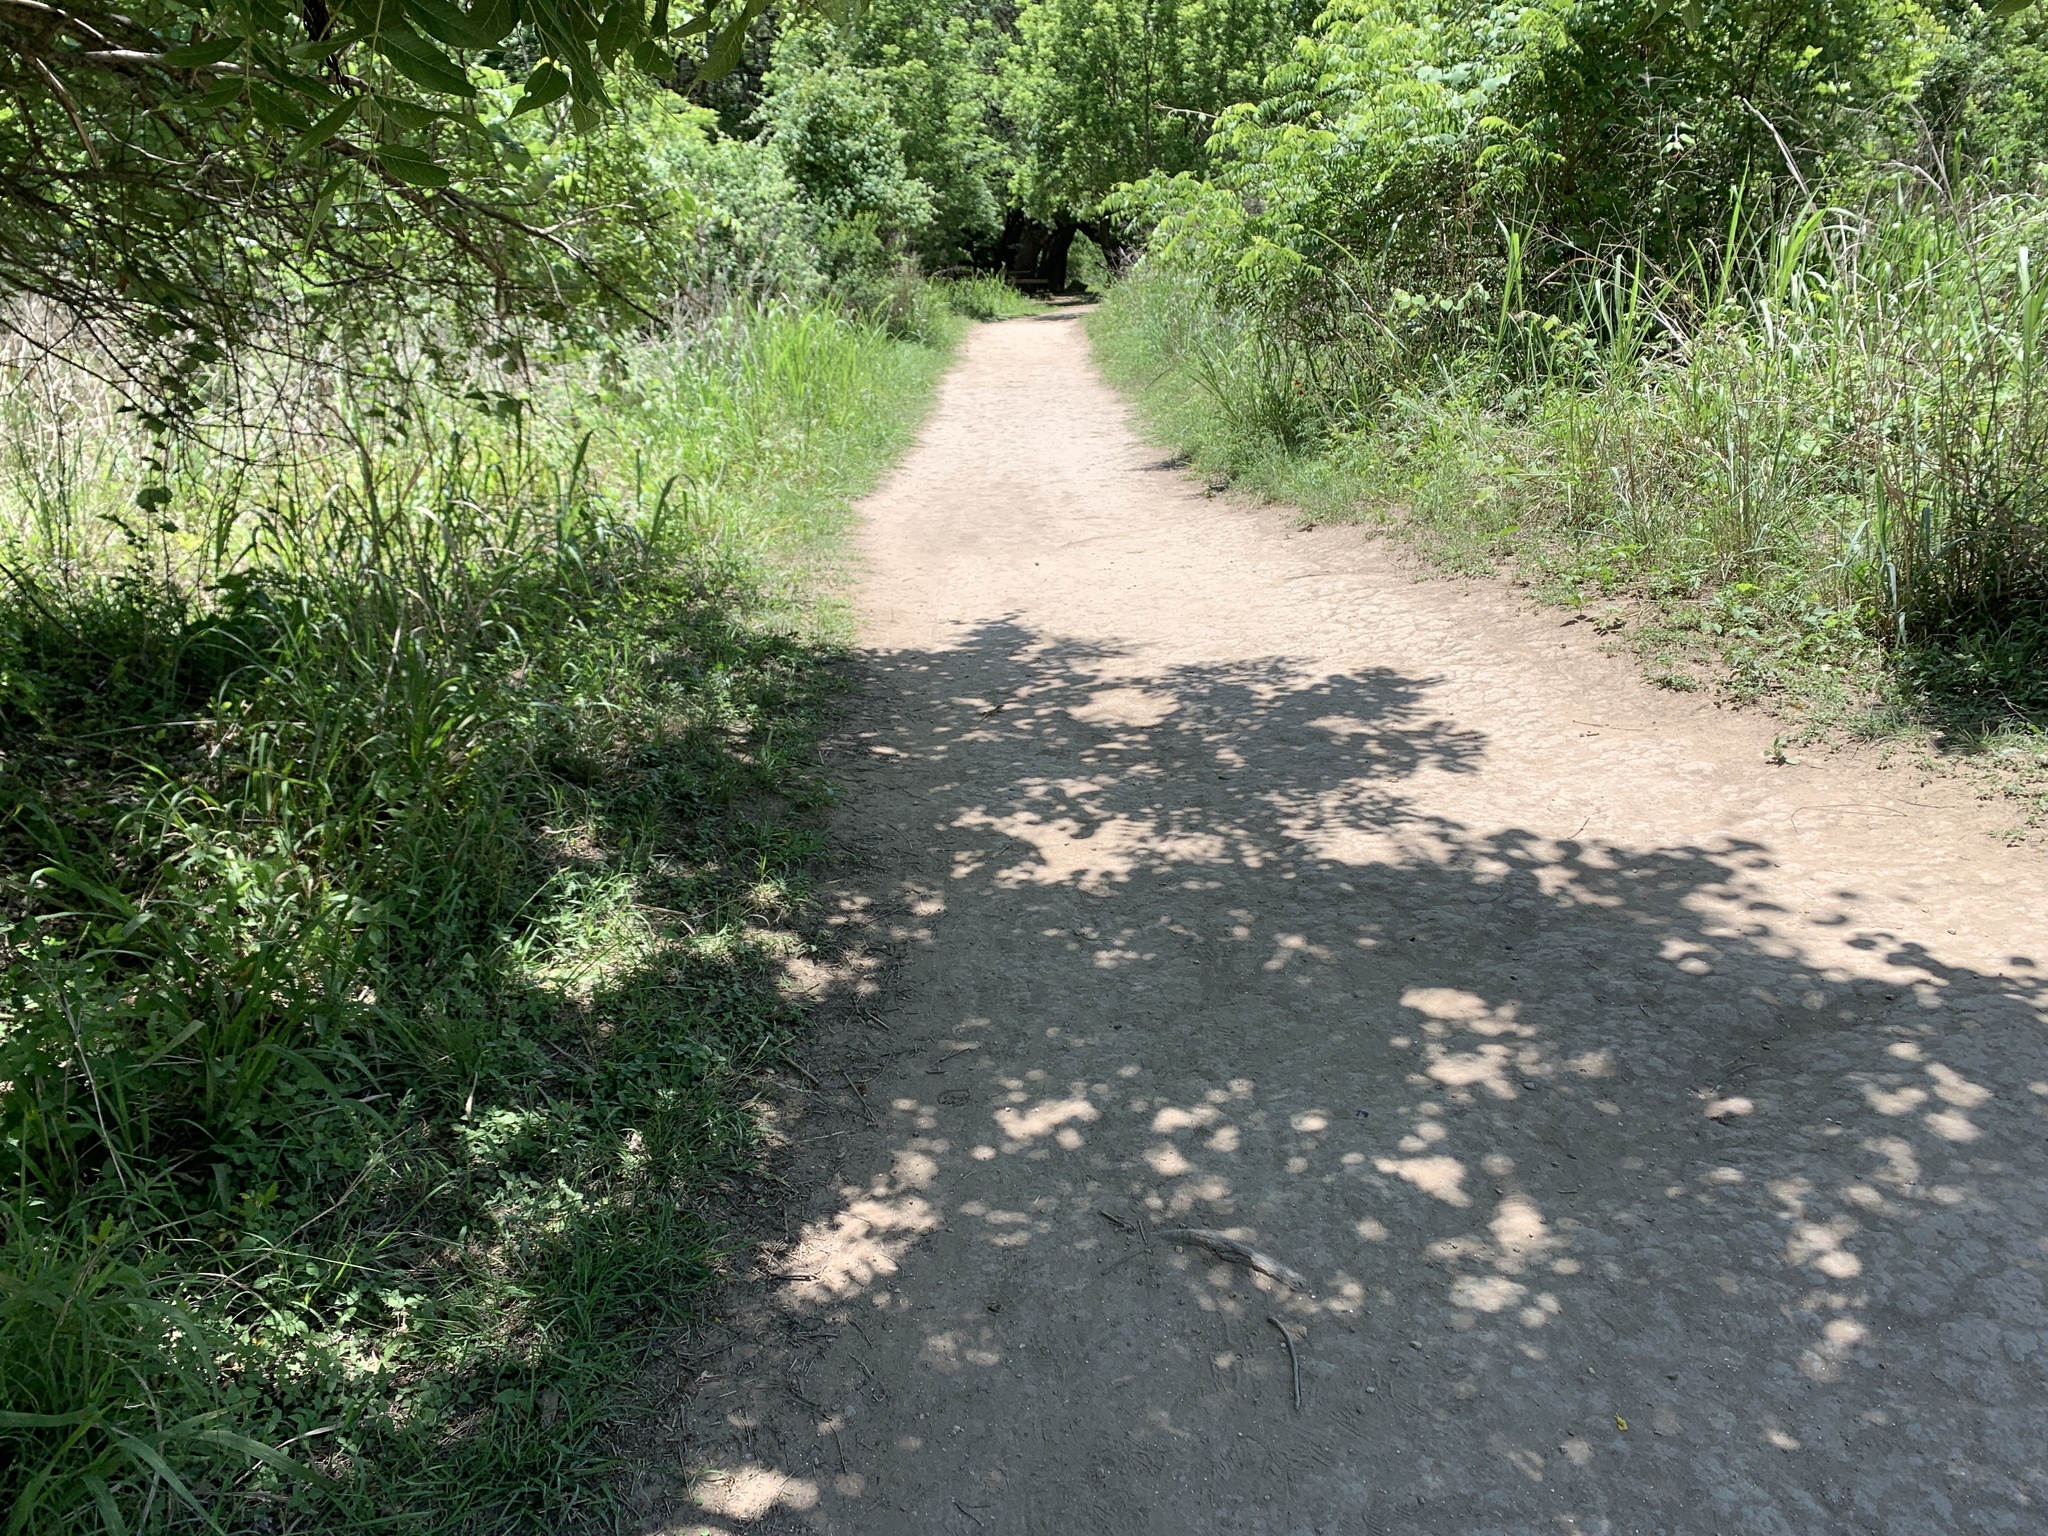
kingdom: Animalia
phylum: Chordata
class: Squamata
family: Teiidae
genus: Aspidoscelis
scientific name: Aspidoscelis gularis
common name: Eastern spotted whiptail
